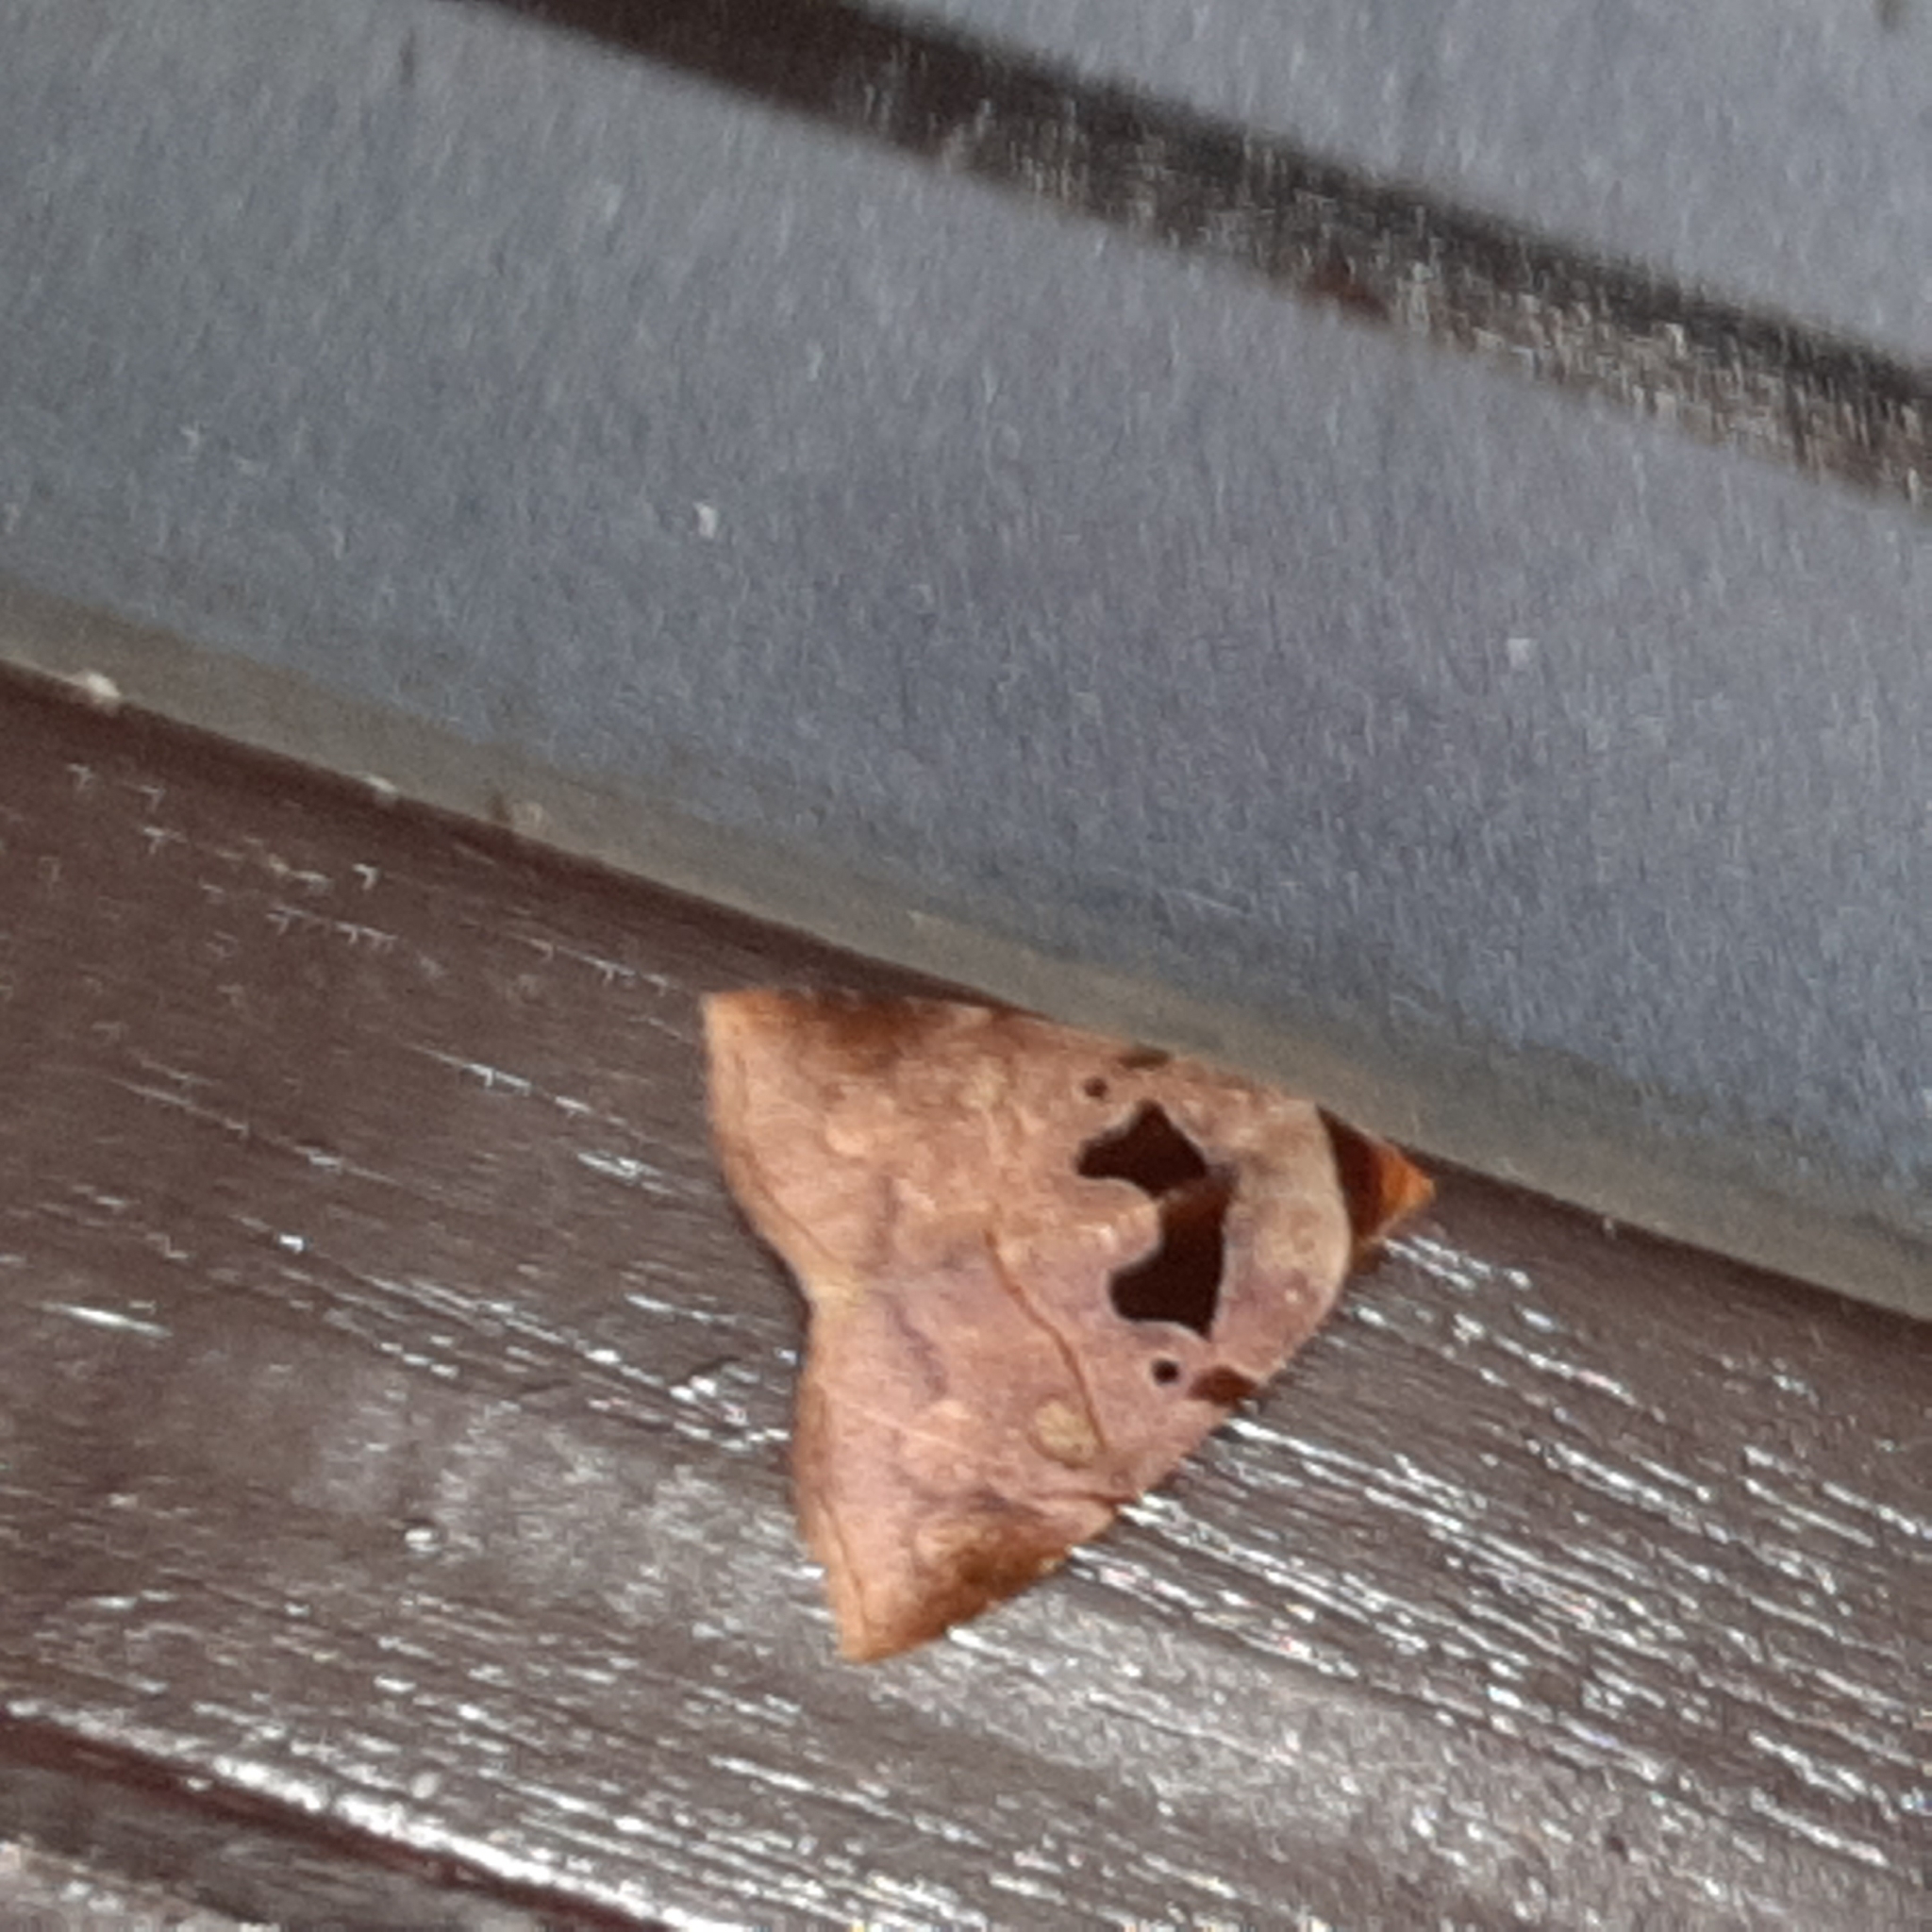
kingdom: Animalia
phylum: Arthropoda
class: Insecta
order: Lepidoptera
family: Erebidae
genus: Lephana
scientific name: Lephana muffula
